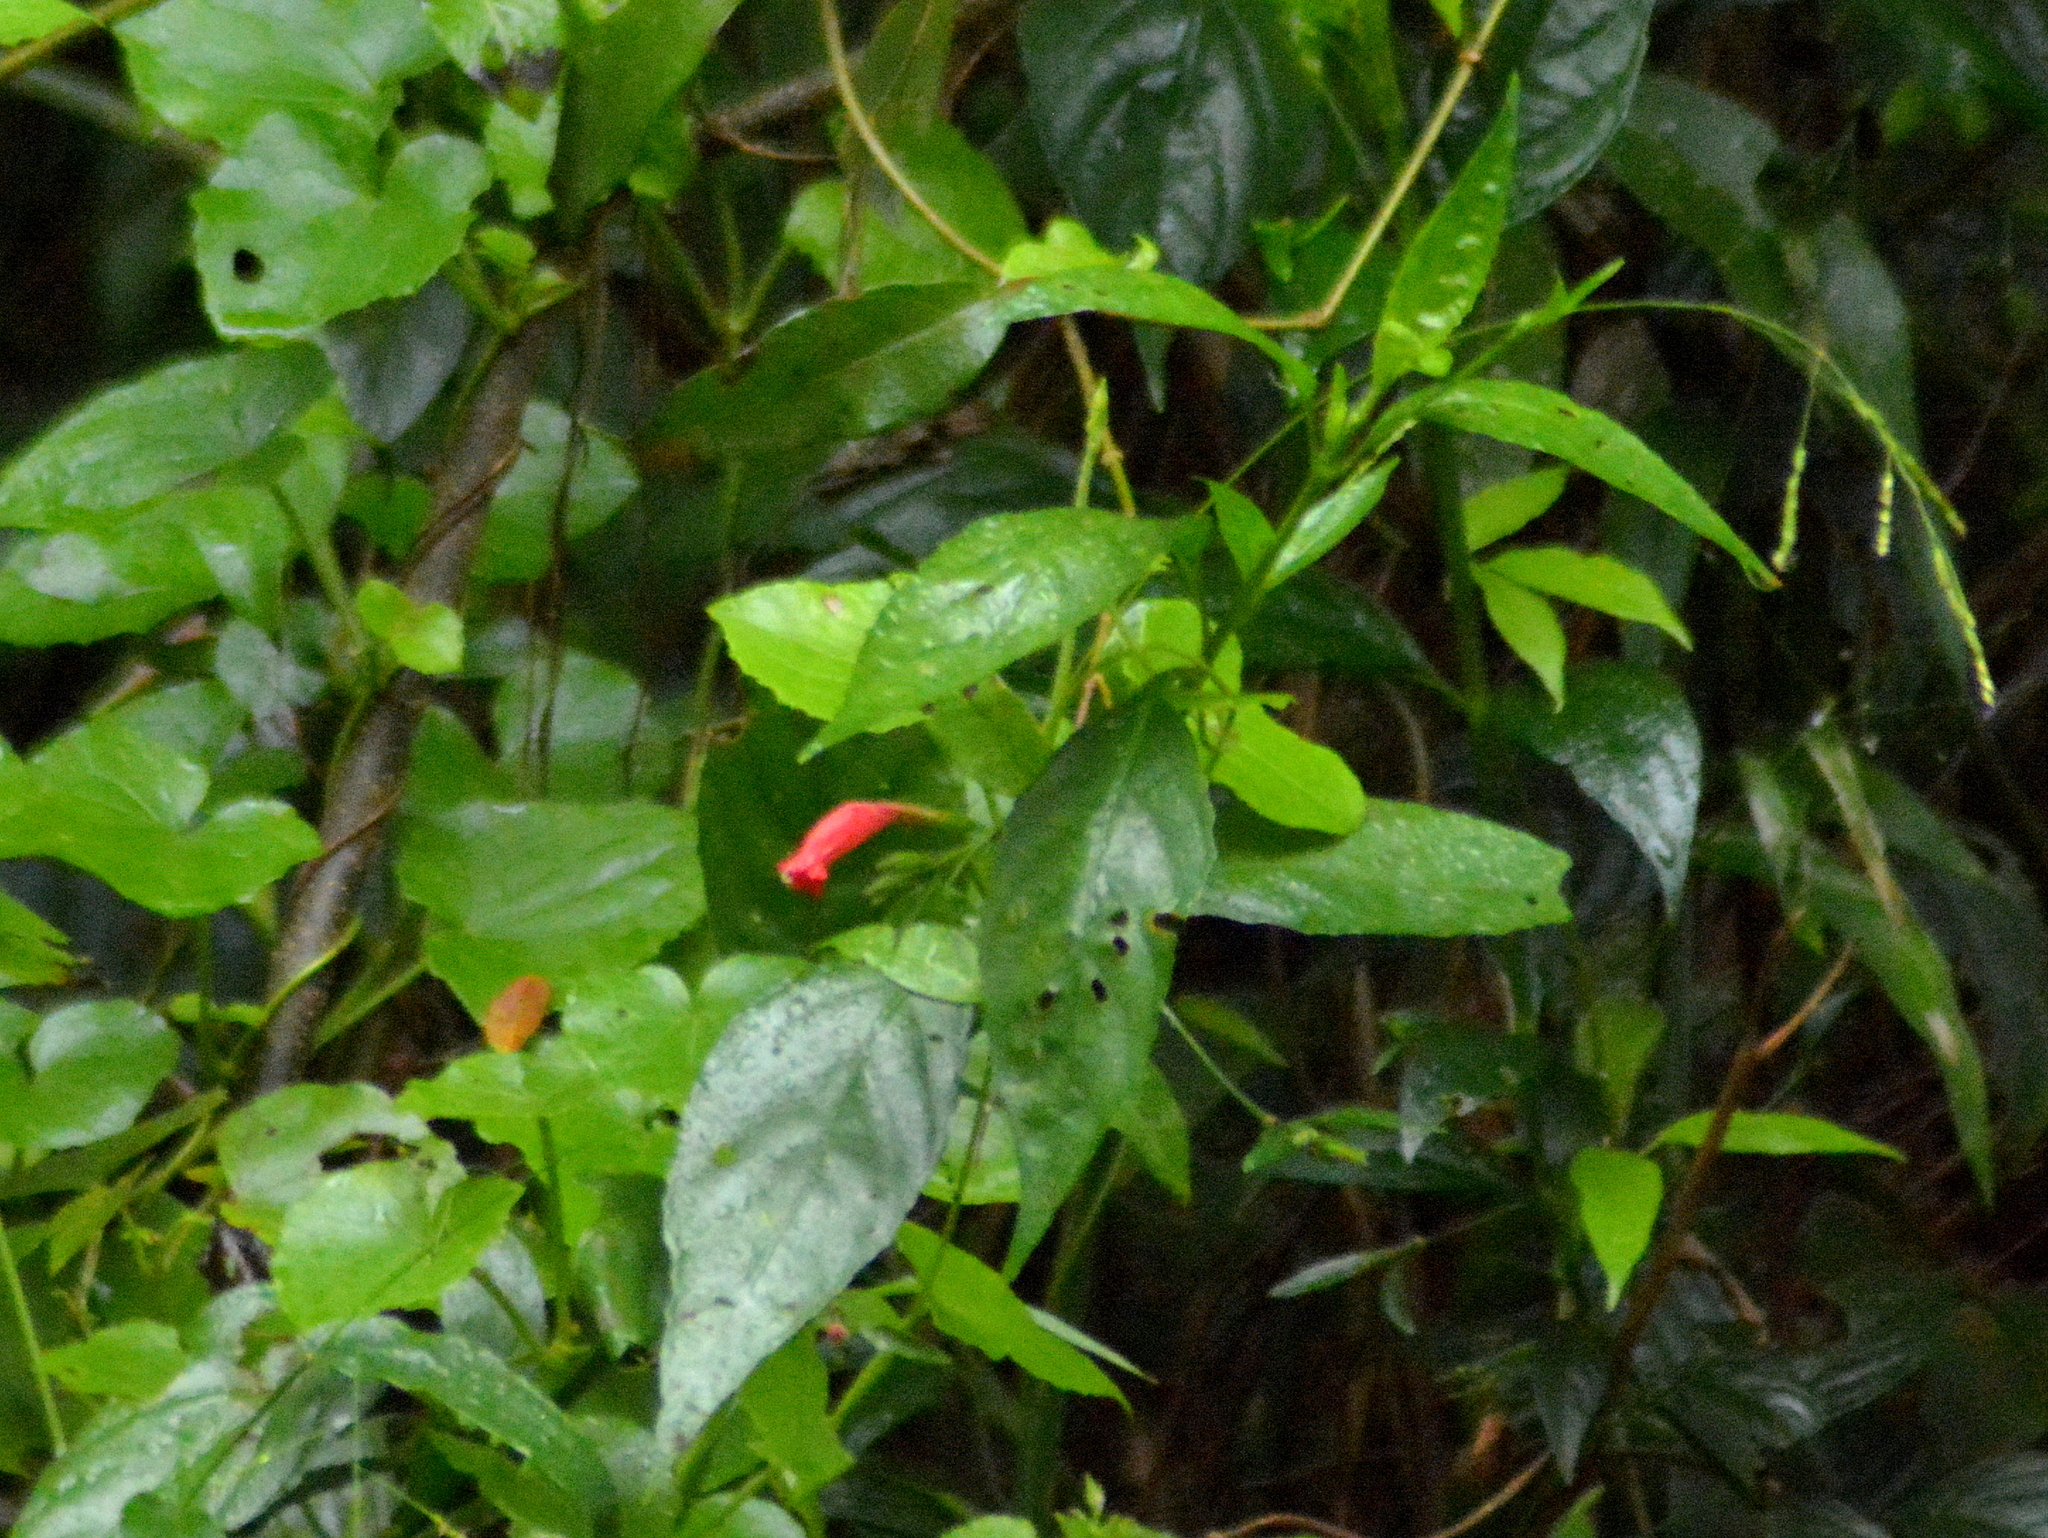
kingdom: Plantae
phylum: Tracheophyta
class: Magnoliopsida
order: Lamiales
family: Acanthaceae
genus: Ruellia
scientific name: Ruellia angustiflora
